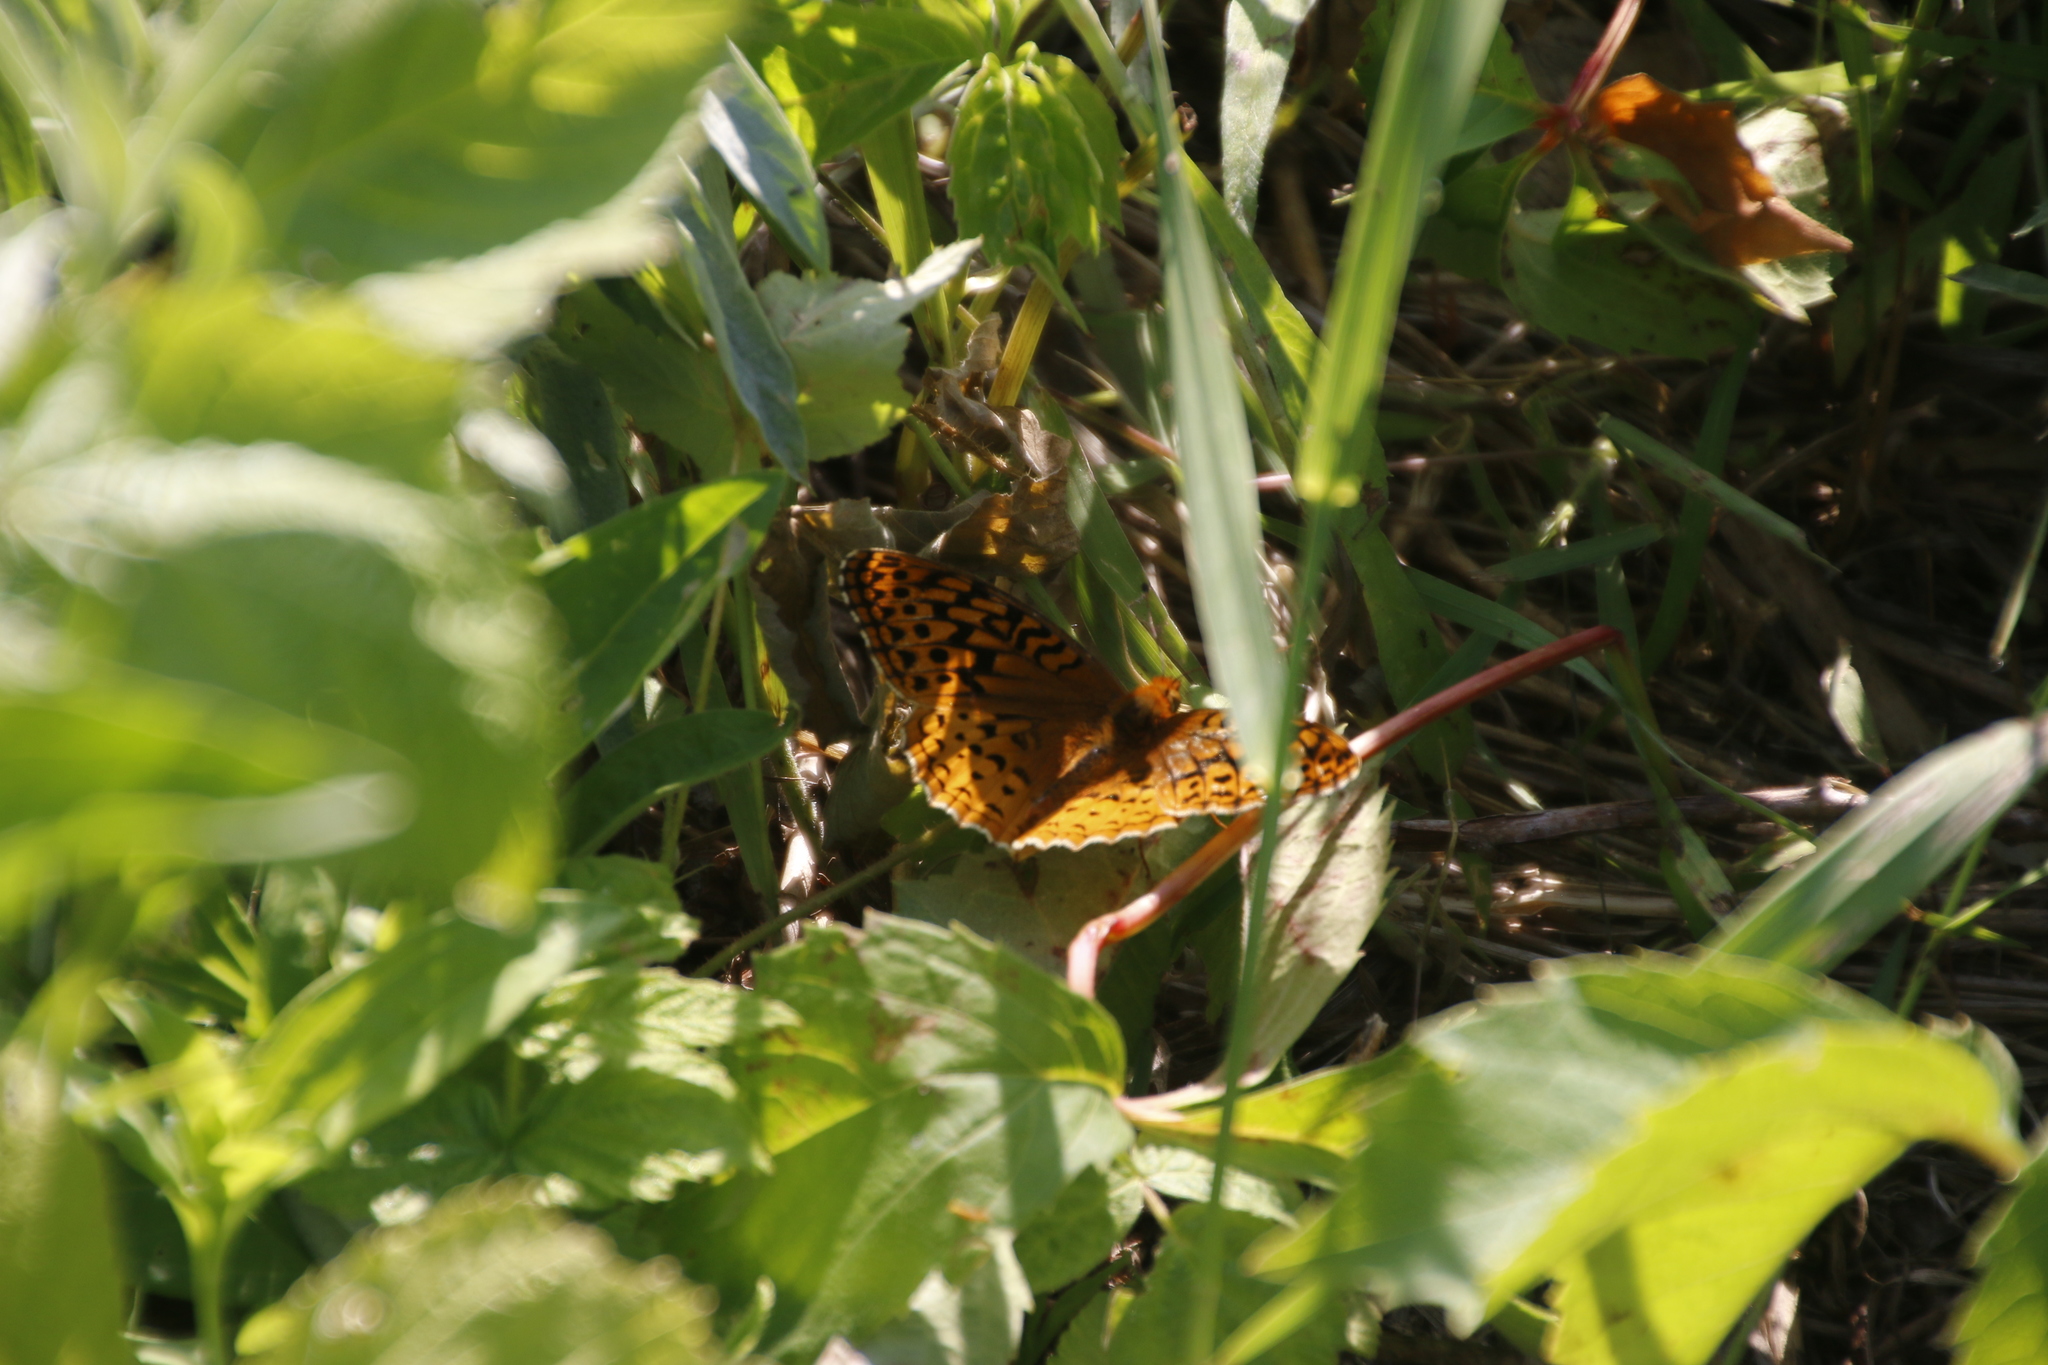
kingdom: Animalia
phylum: Arthropoda
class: Insecta
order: Lepidoptera
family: Nymphalidae
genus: Speyeria
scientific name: Speyeria cybele
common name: Great spangled fritillary
